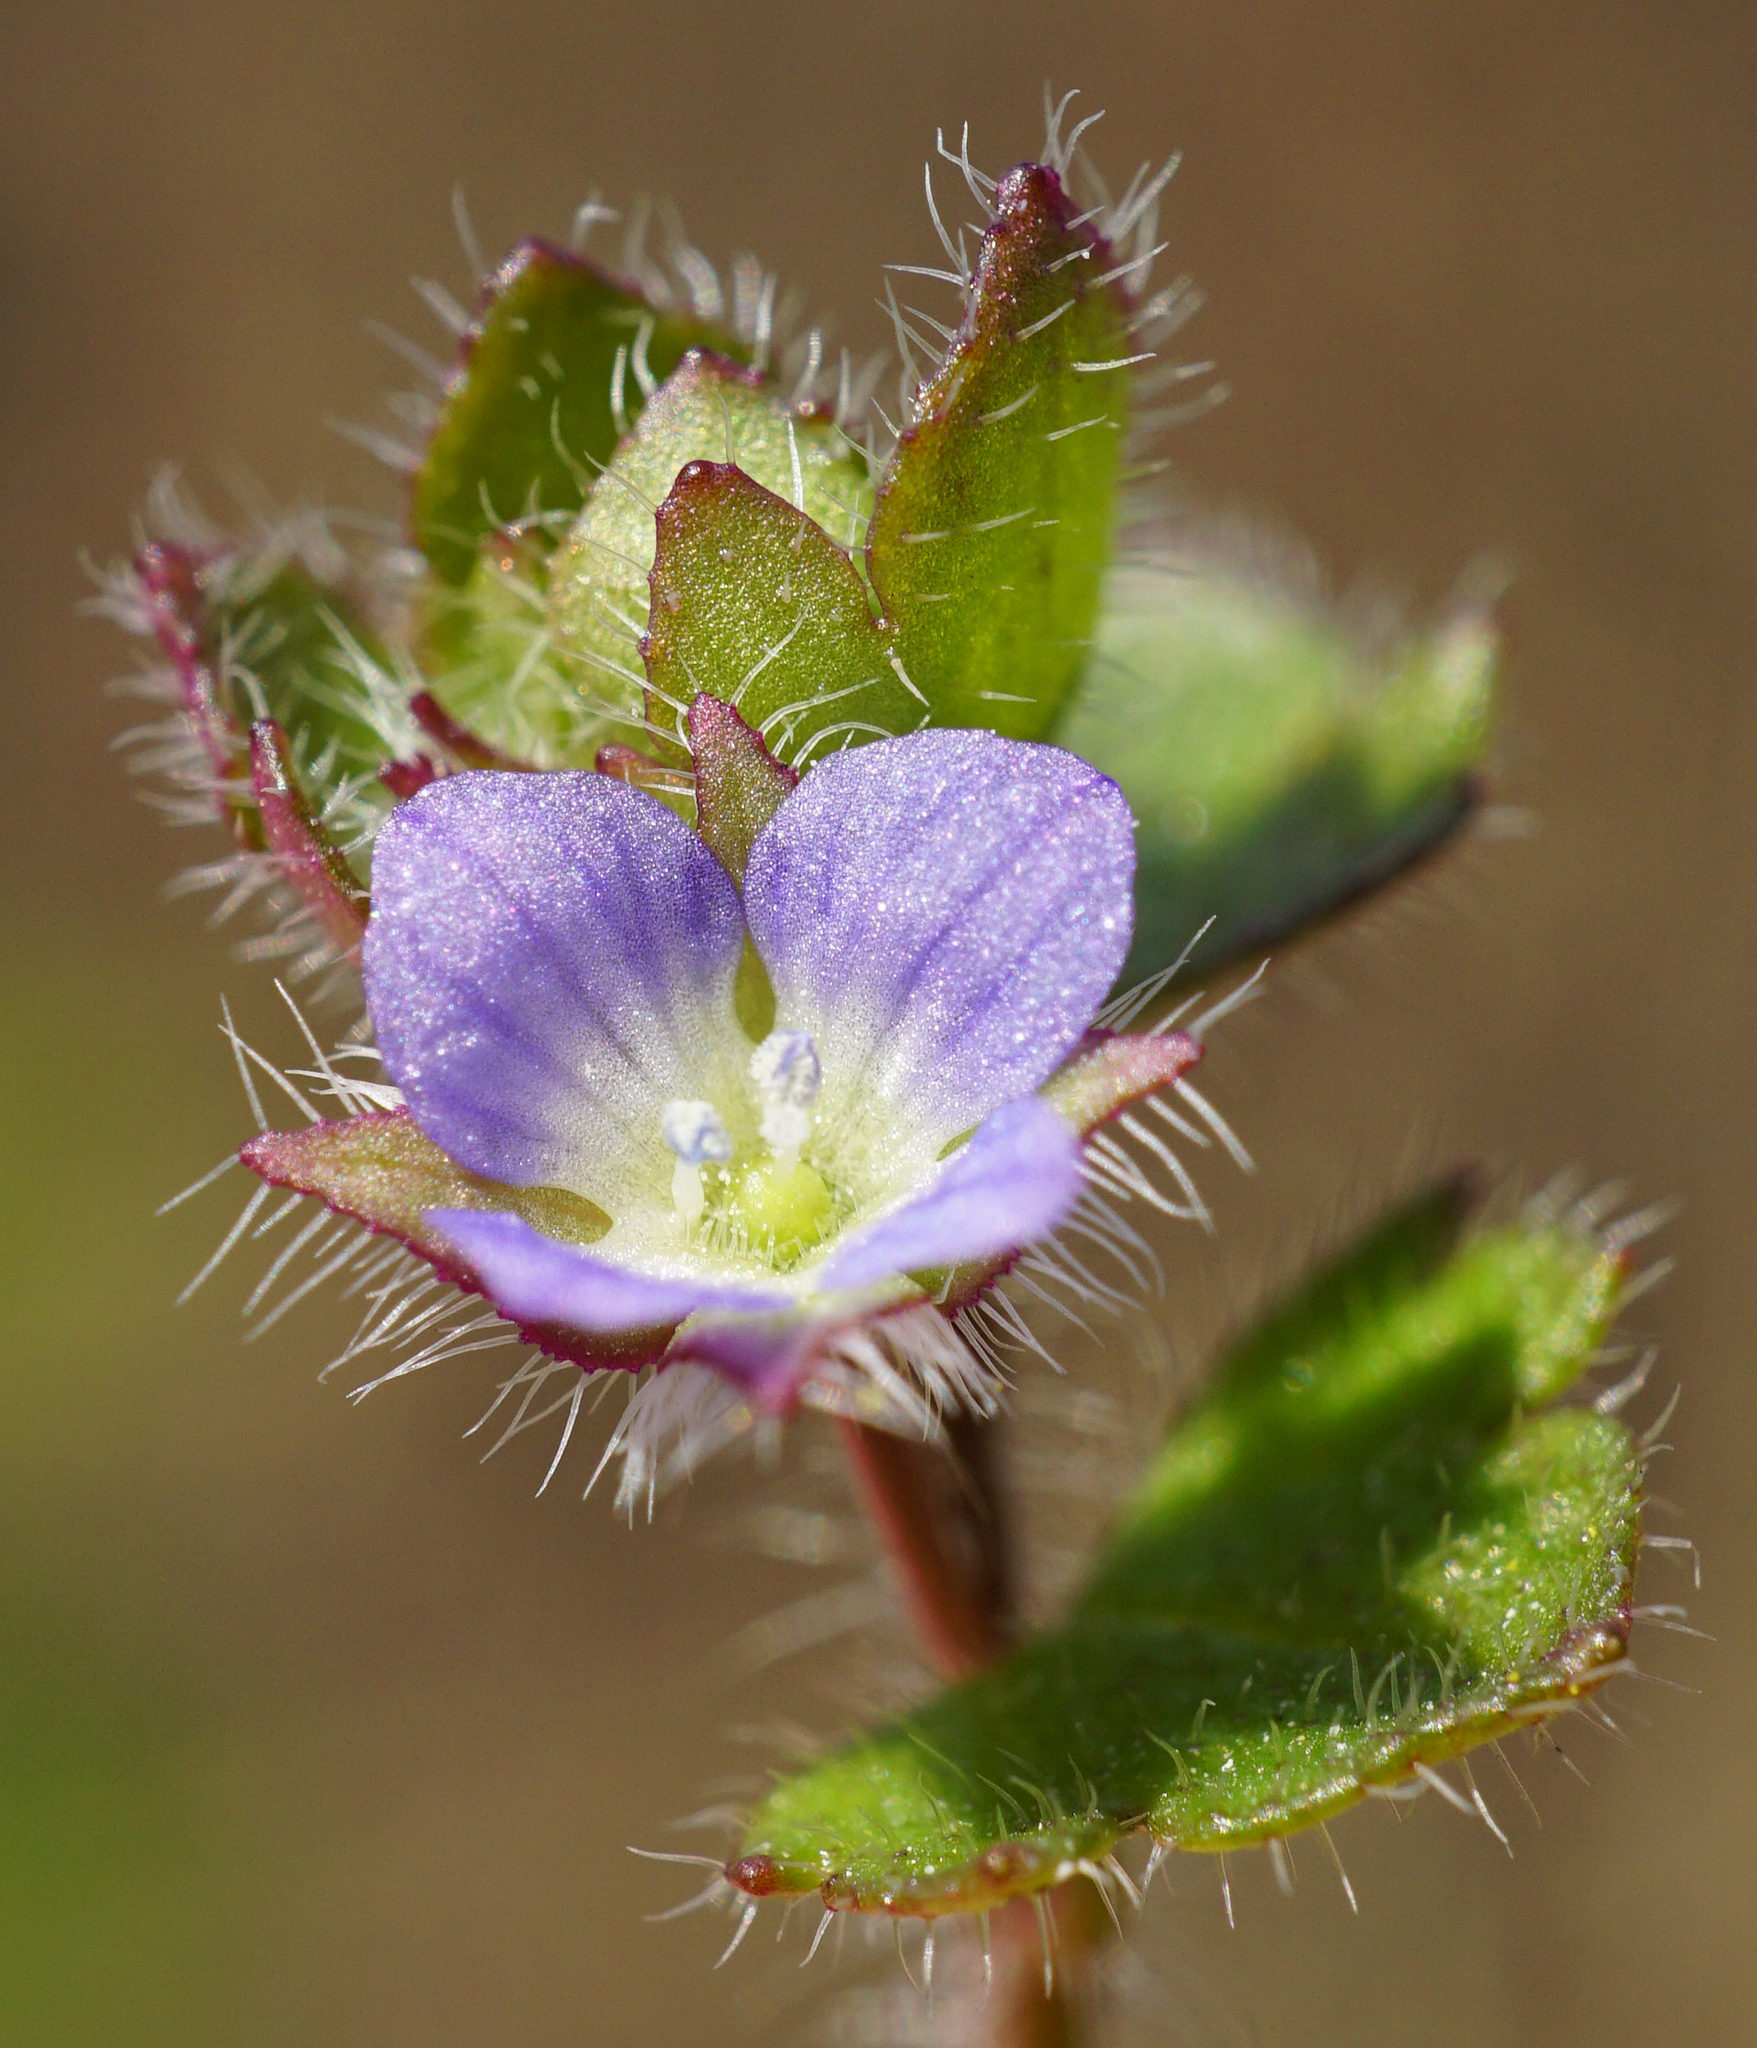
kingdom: Plantae
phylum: Tracheophyta
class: Magnoliopsida
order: Lamiales
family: Plantaginaceae
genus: Veronica
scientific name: Veronica hederifolia
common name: Ivy-leaved speedwell
